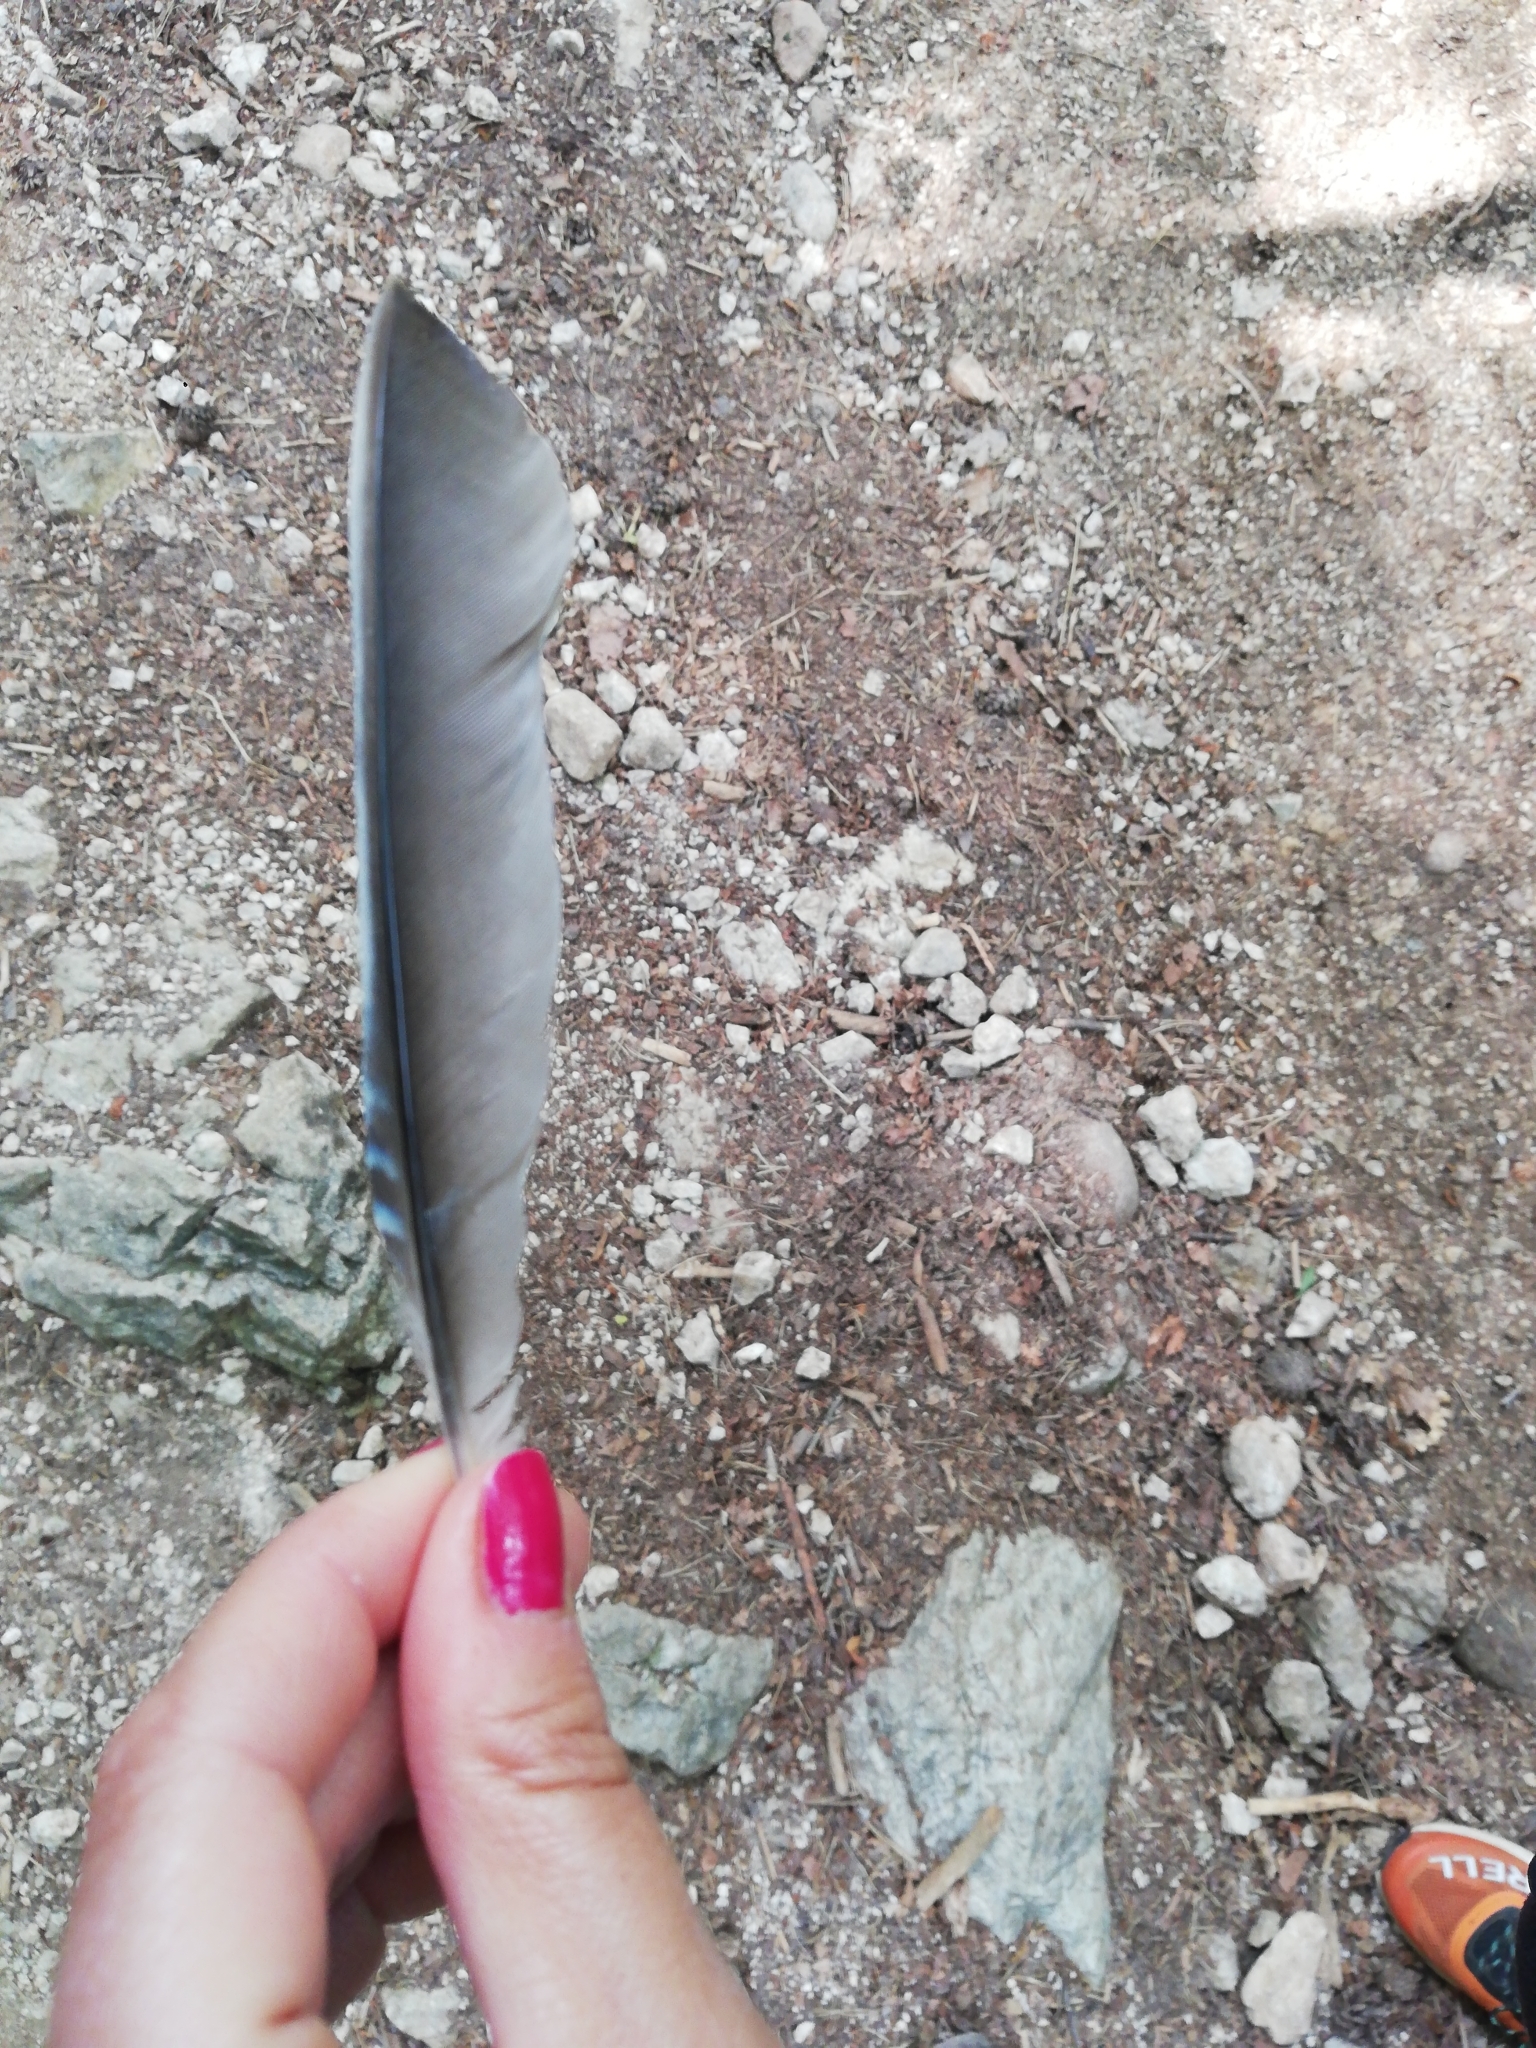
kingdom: Animalia
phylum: Chordata
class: Aves
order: Passeriformes
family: Corvidae
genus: Garrulus
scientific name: Garrulus glandarius
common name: Eurasian jay
